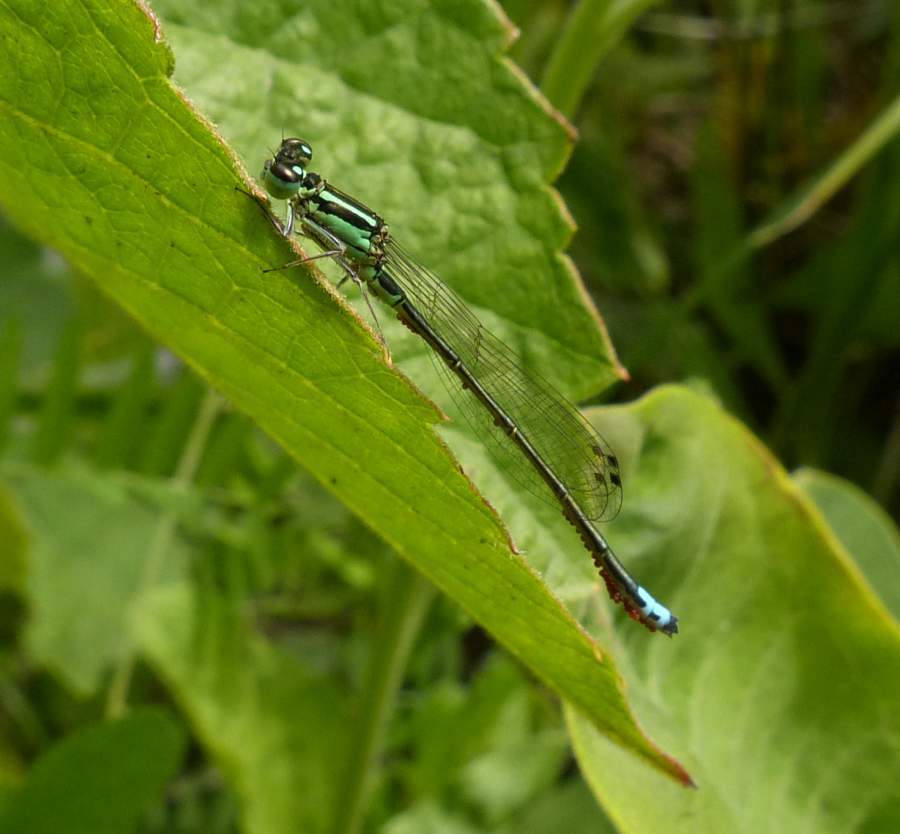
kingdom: Animalia
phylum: Arthropoda
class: Insecta
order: Odonata
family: Coenagrionidae
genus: Ischnura
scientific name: Ischnura verticalis
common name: Eastern forktail
